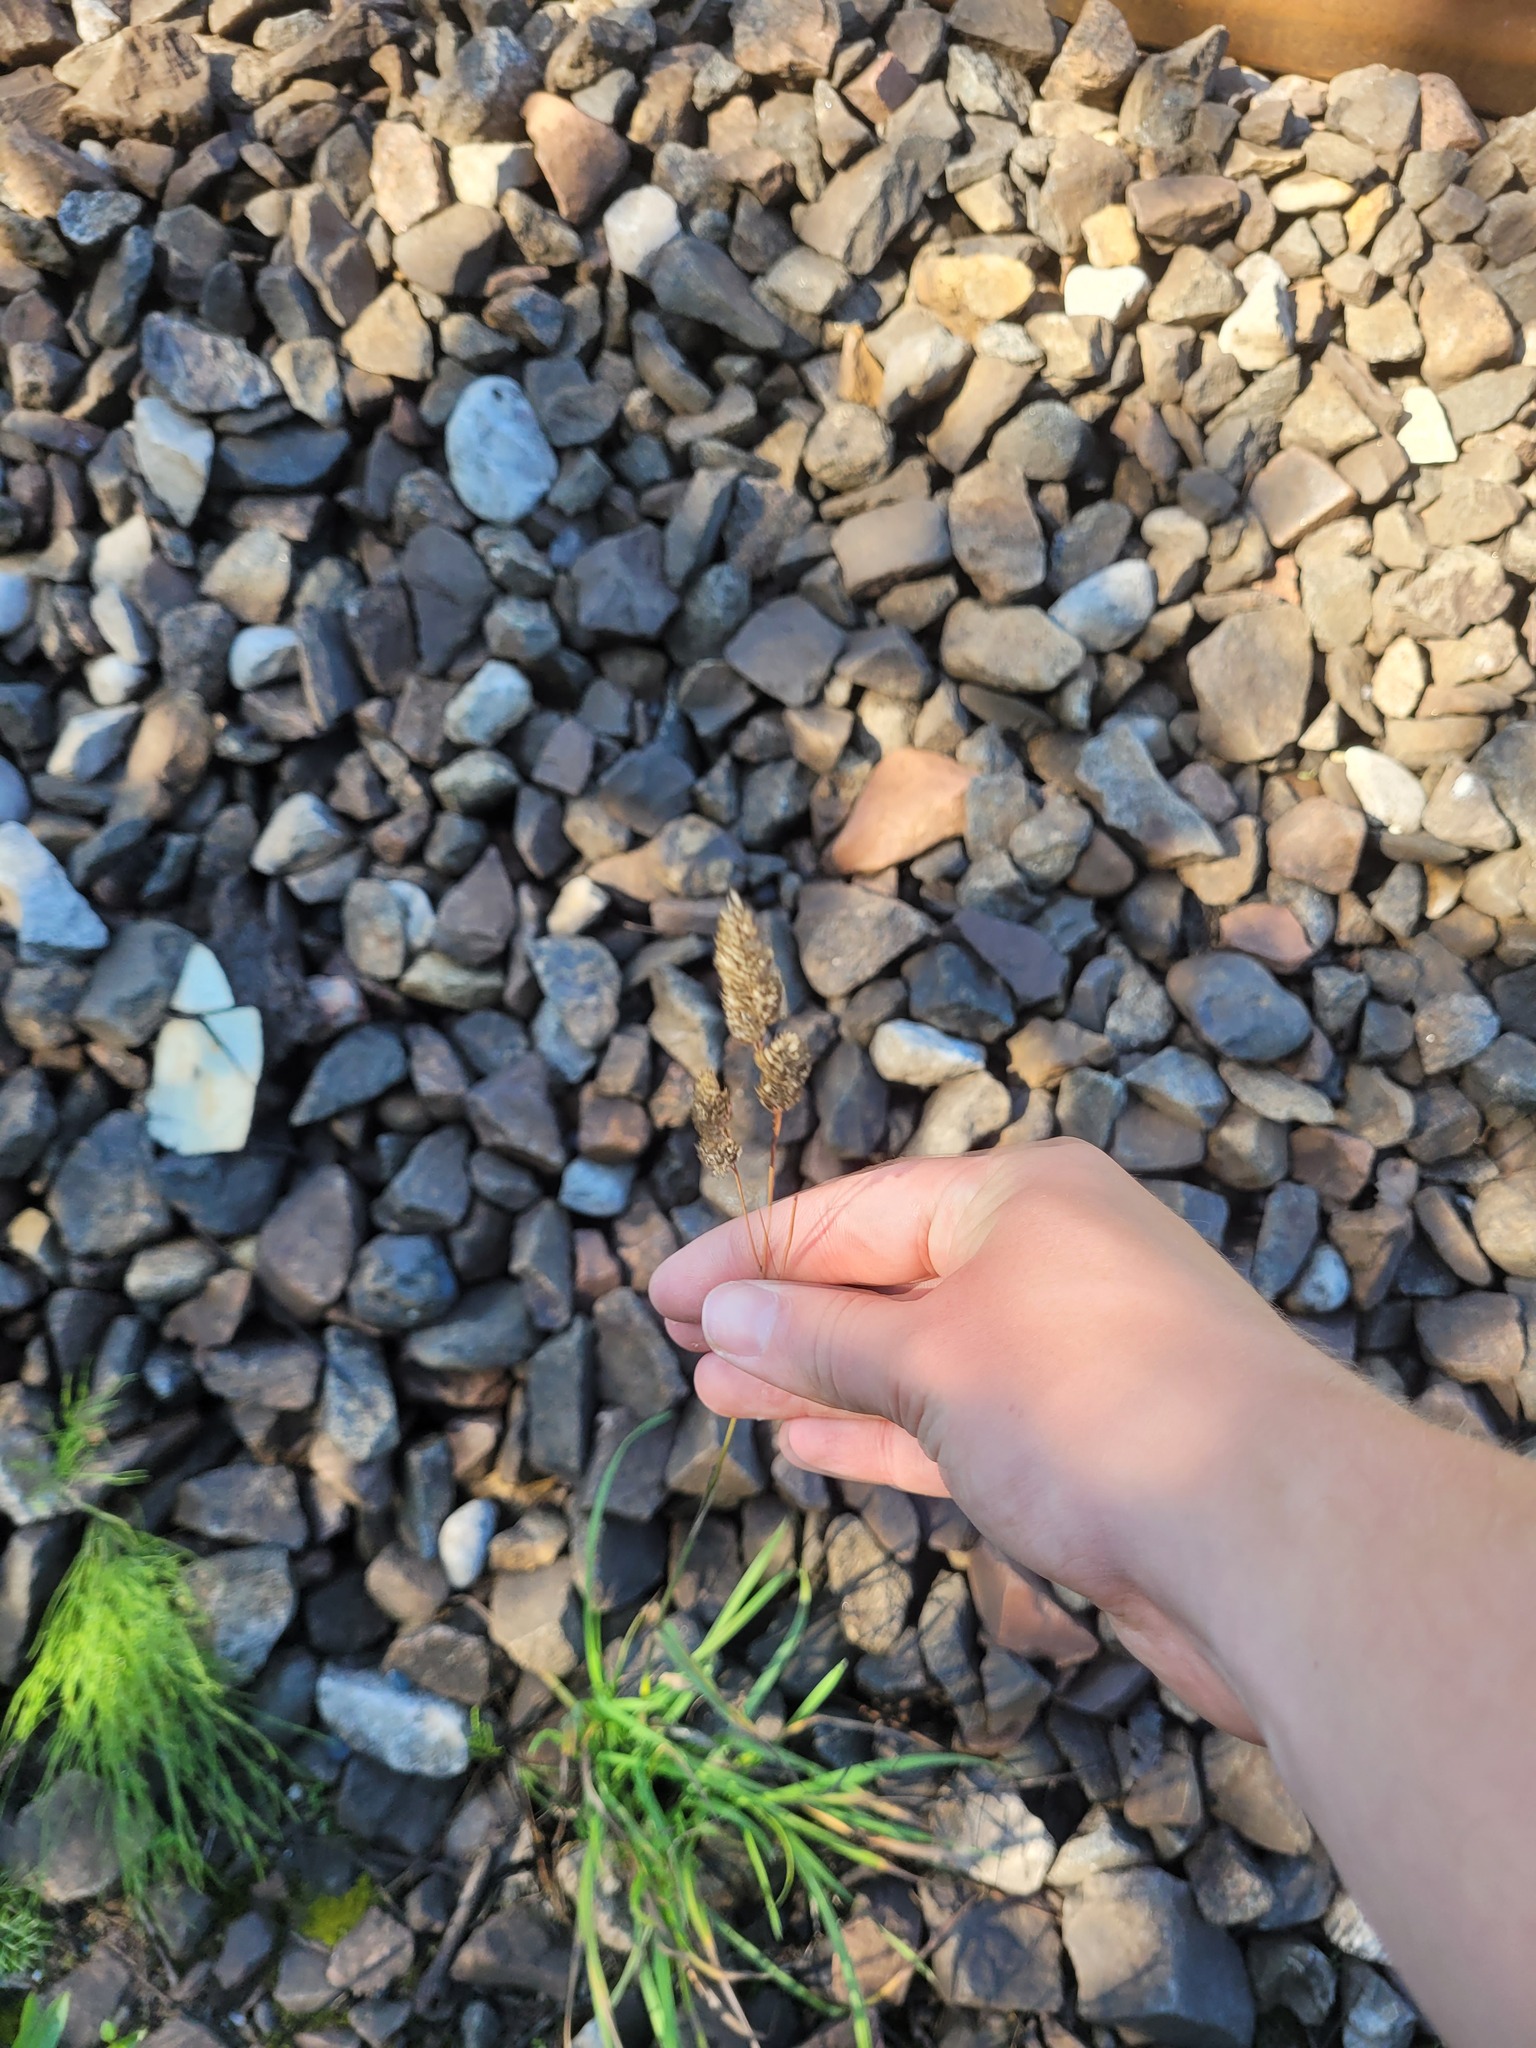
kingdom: Plantae
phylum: Tracheophyta
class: Liliopsida
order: Poales
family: Poaceae
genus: Dactylis
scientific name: Dactylis glomerata
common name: Orchardgrass
